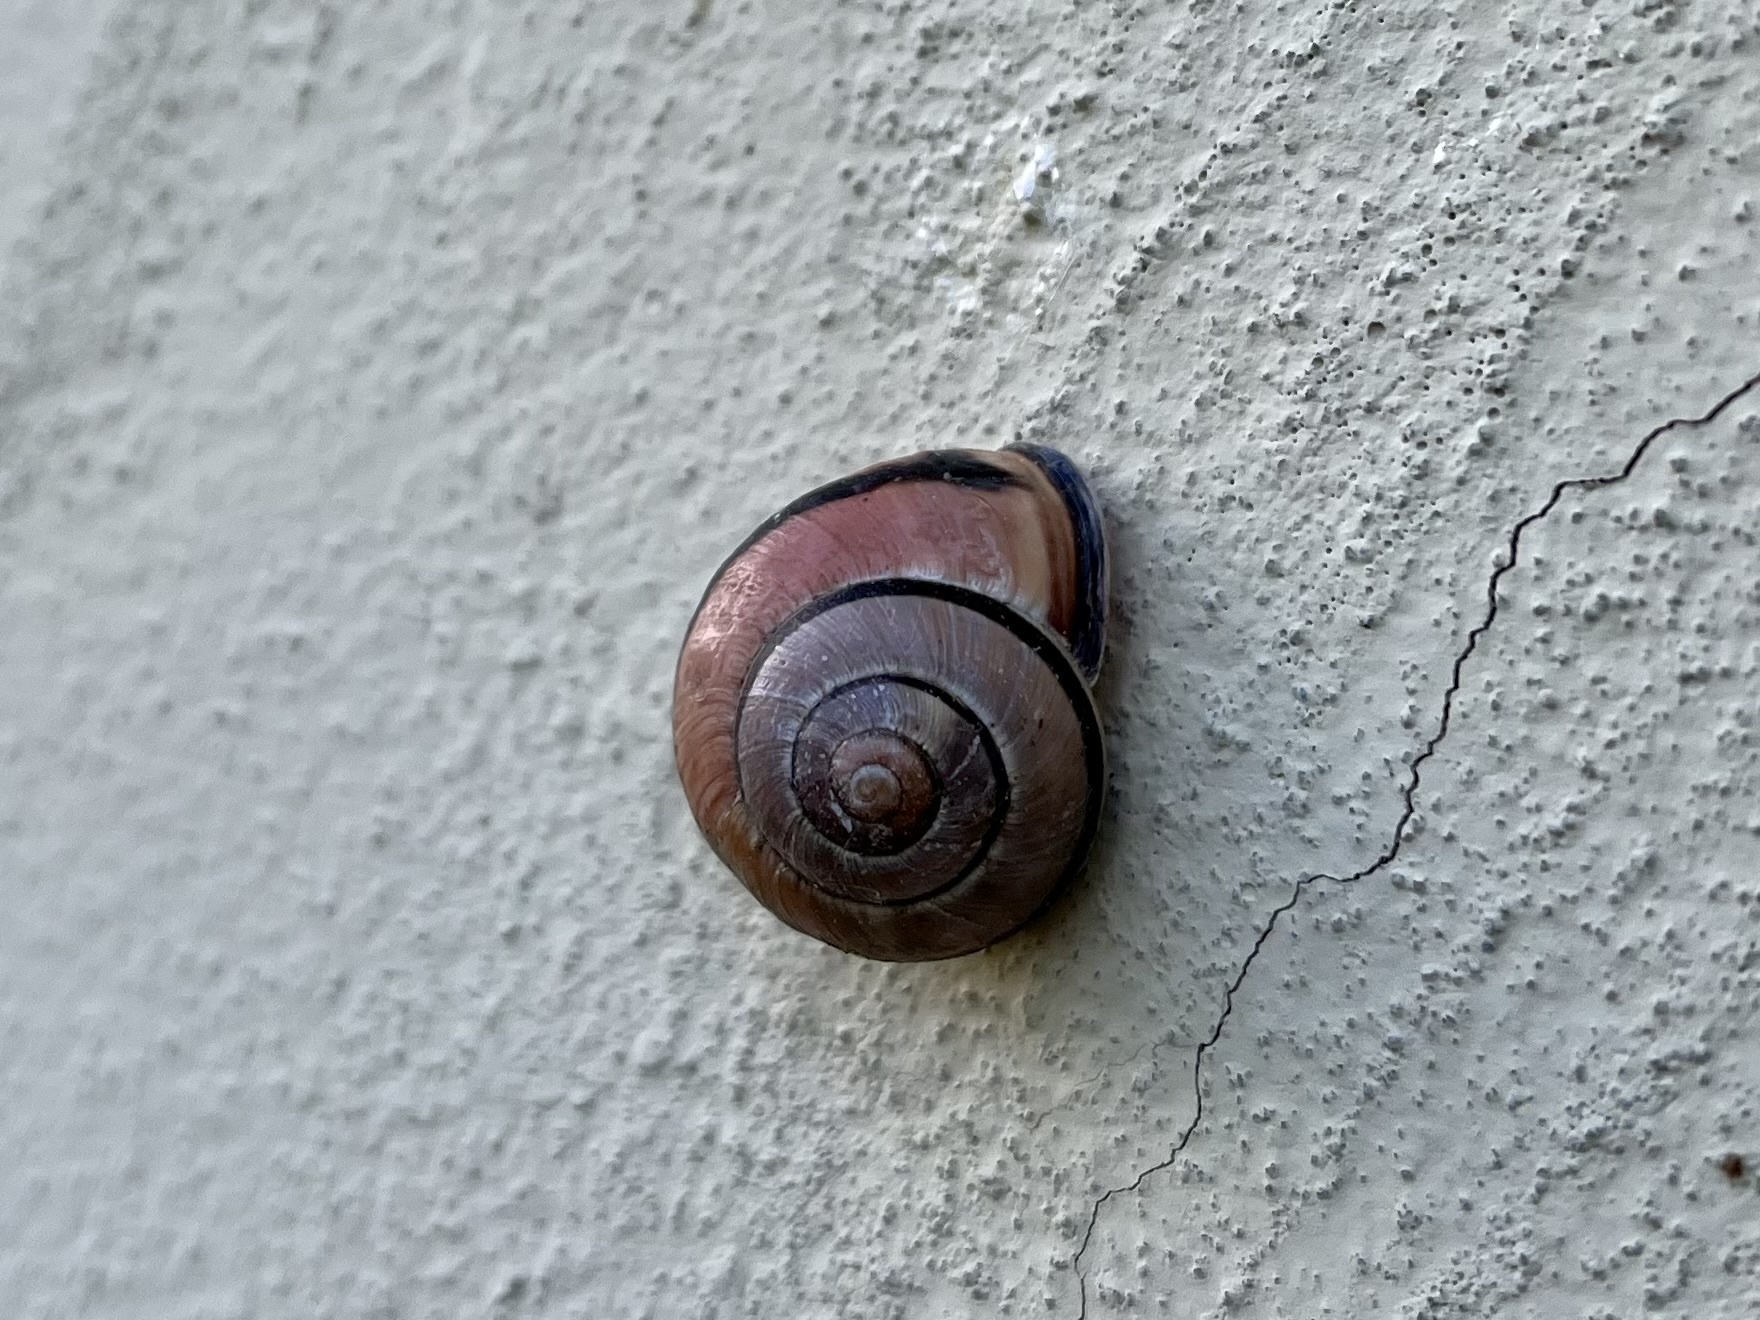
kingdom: Animalia
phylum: Mollusca
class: Gastropoda
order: Stylommatophora
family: Helicidae
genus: Cepaea
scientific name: Cepaea nemoralis
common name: Grovesnail
